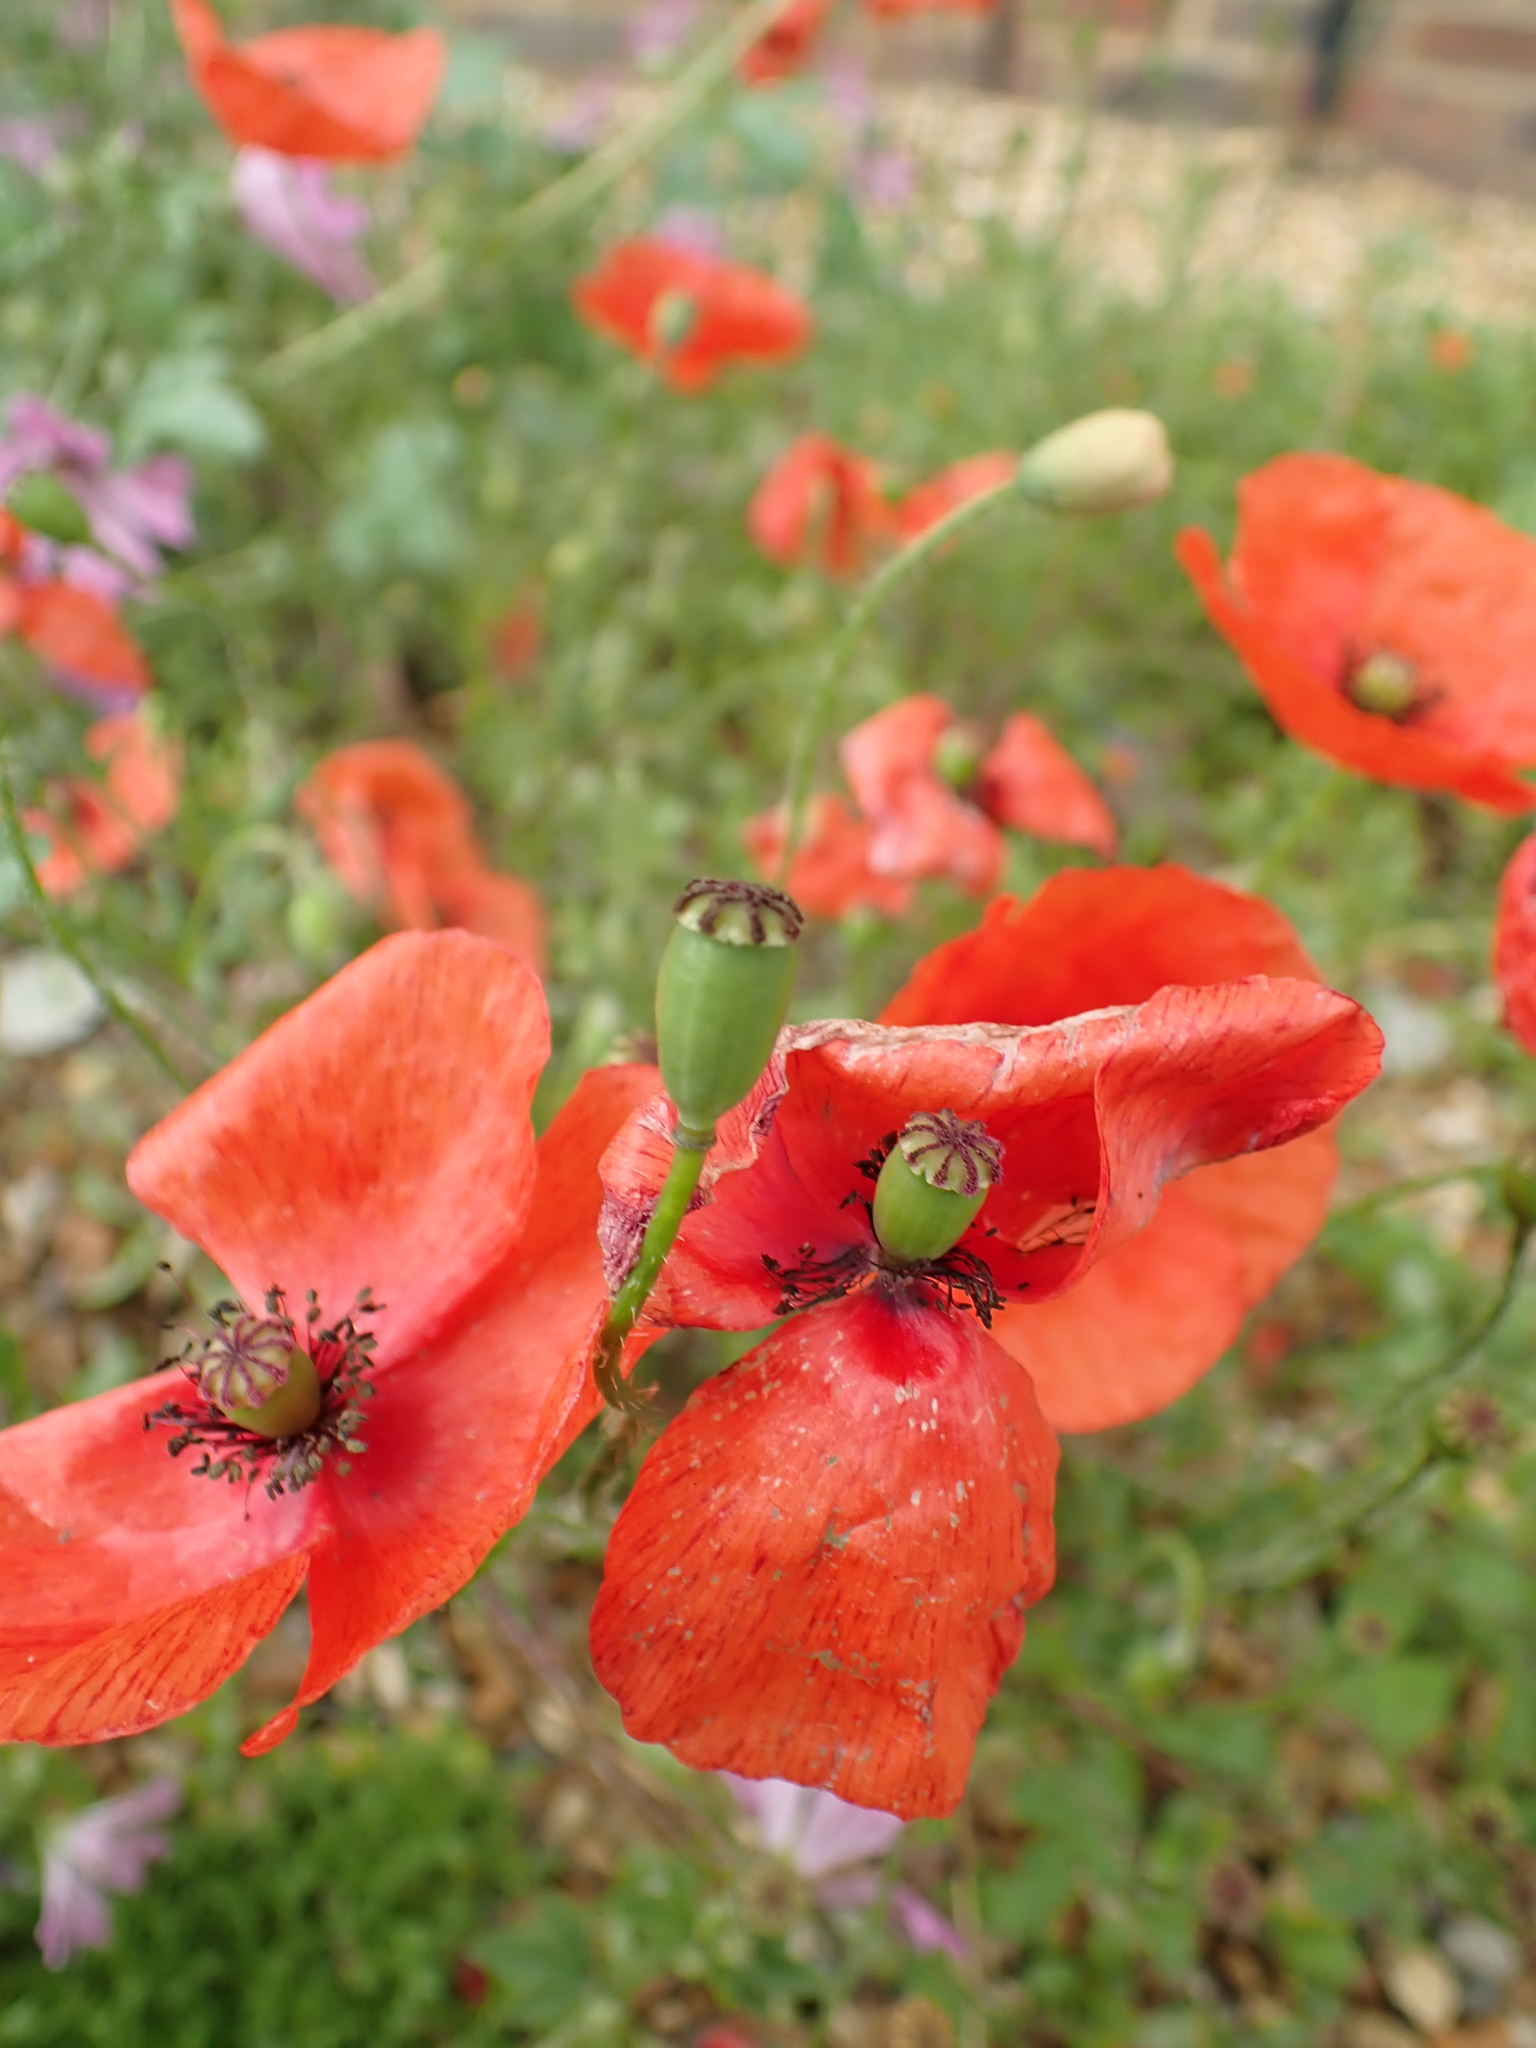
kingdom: Plantae
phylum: Tracheophyta
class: Magnoliopsida
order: Ranunculales
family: Papaveraceae
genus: Papaver
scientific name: Papaver rhoeas
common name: Corn poppy
